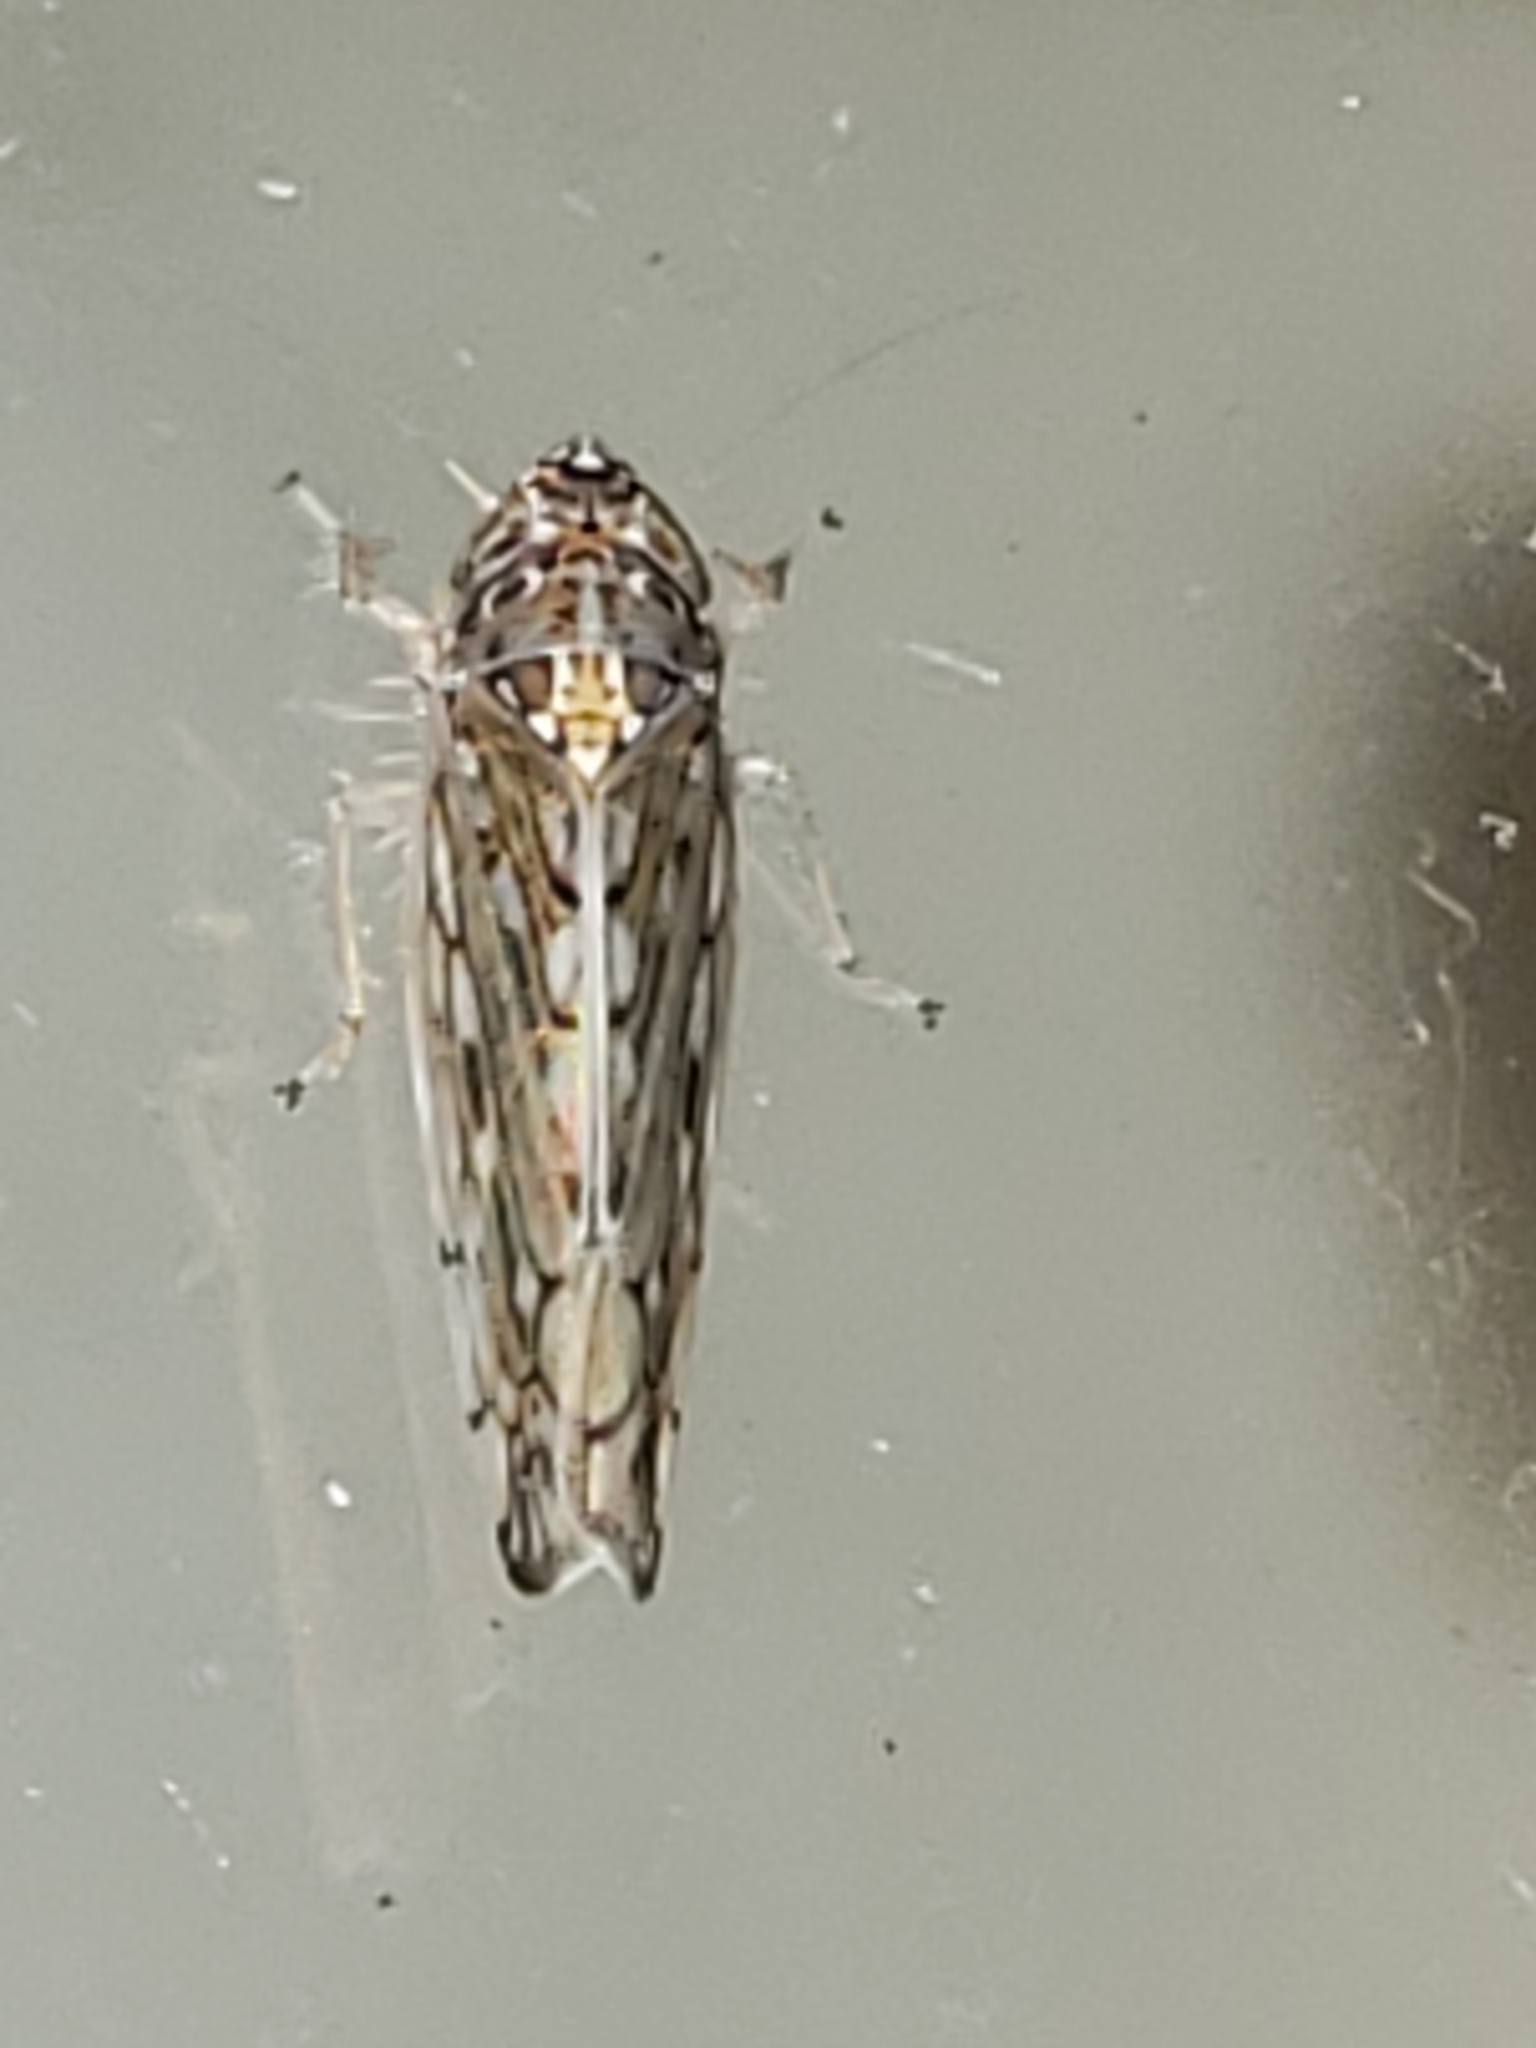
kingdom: Animalia
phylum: Arthropoda
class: Insecta
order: Hemiptera
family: Cicadellidae
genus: Osbornellus
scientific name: Osbornellus clarus
